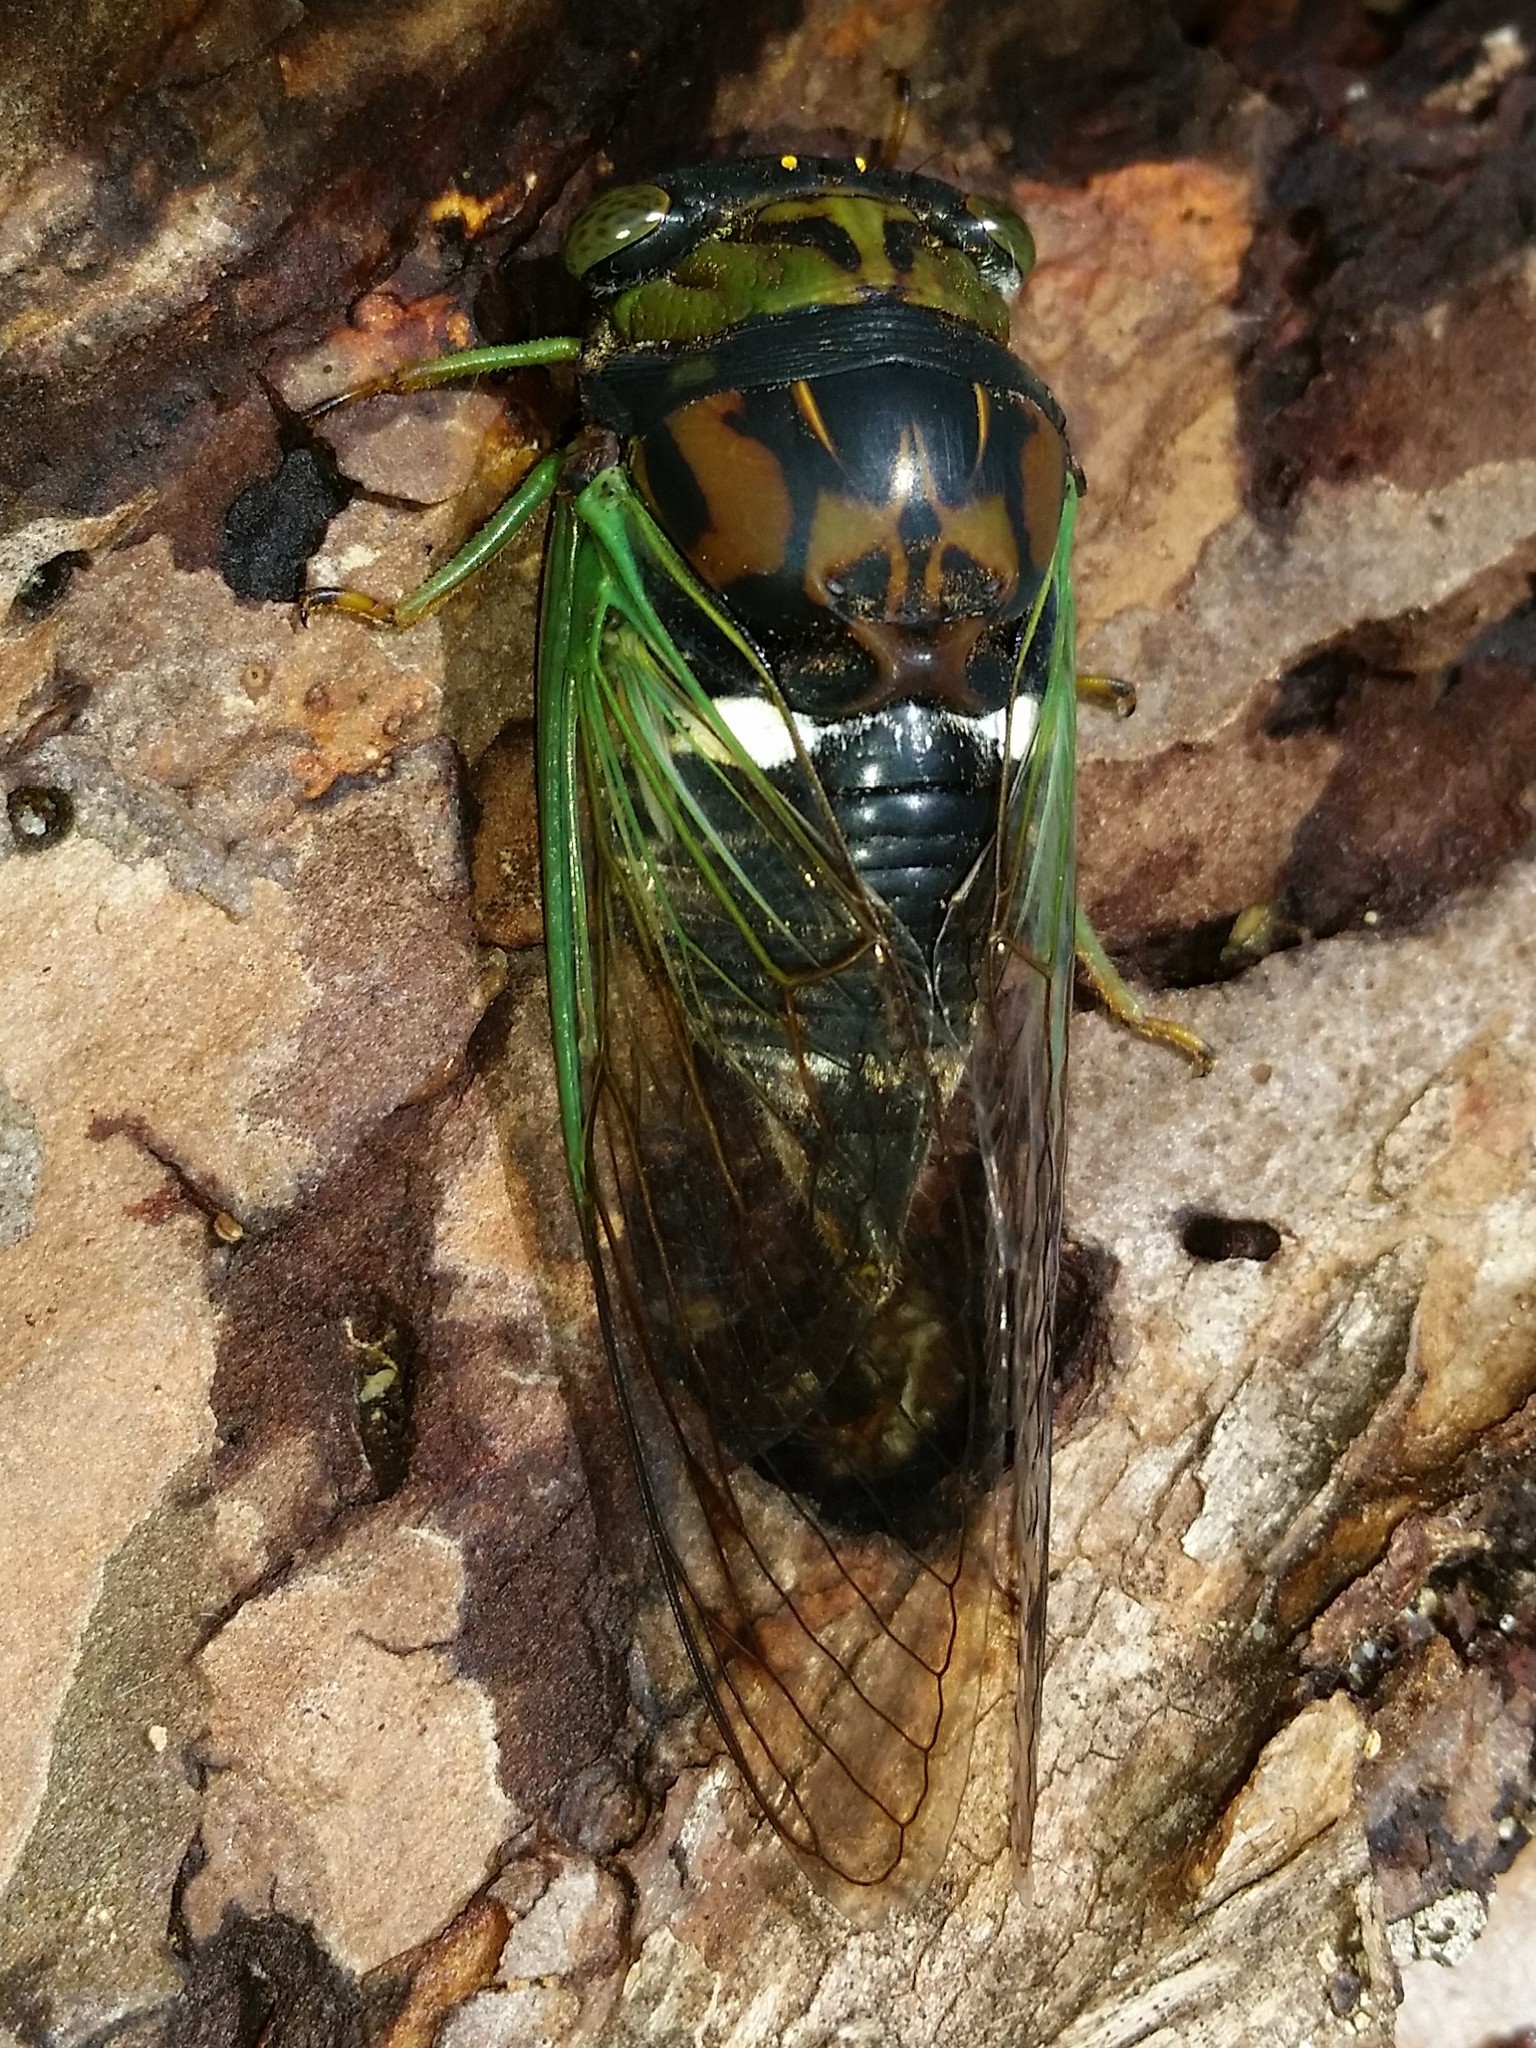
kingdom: Animalia
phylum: Arthropoda
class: Insecta
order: Hemiptera
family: Cicadidae
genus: Neotibicen
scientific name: Neotibicen tibicen
